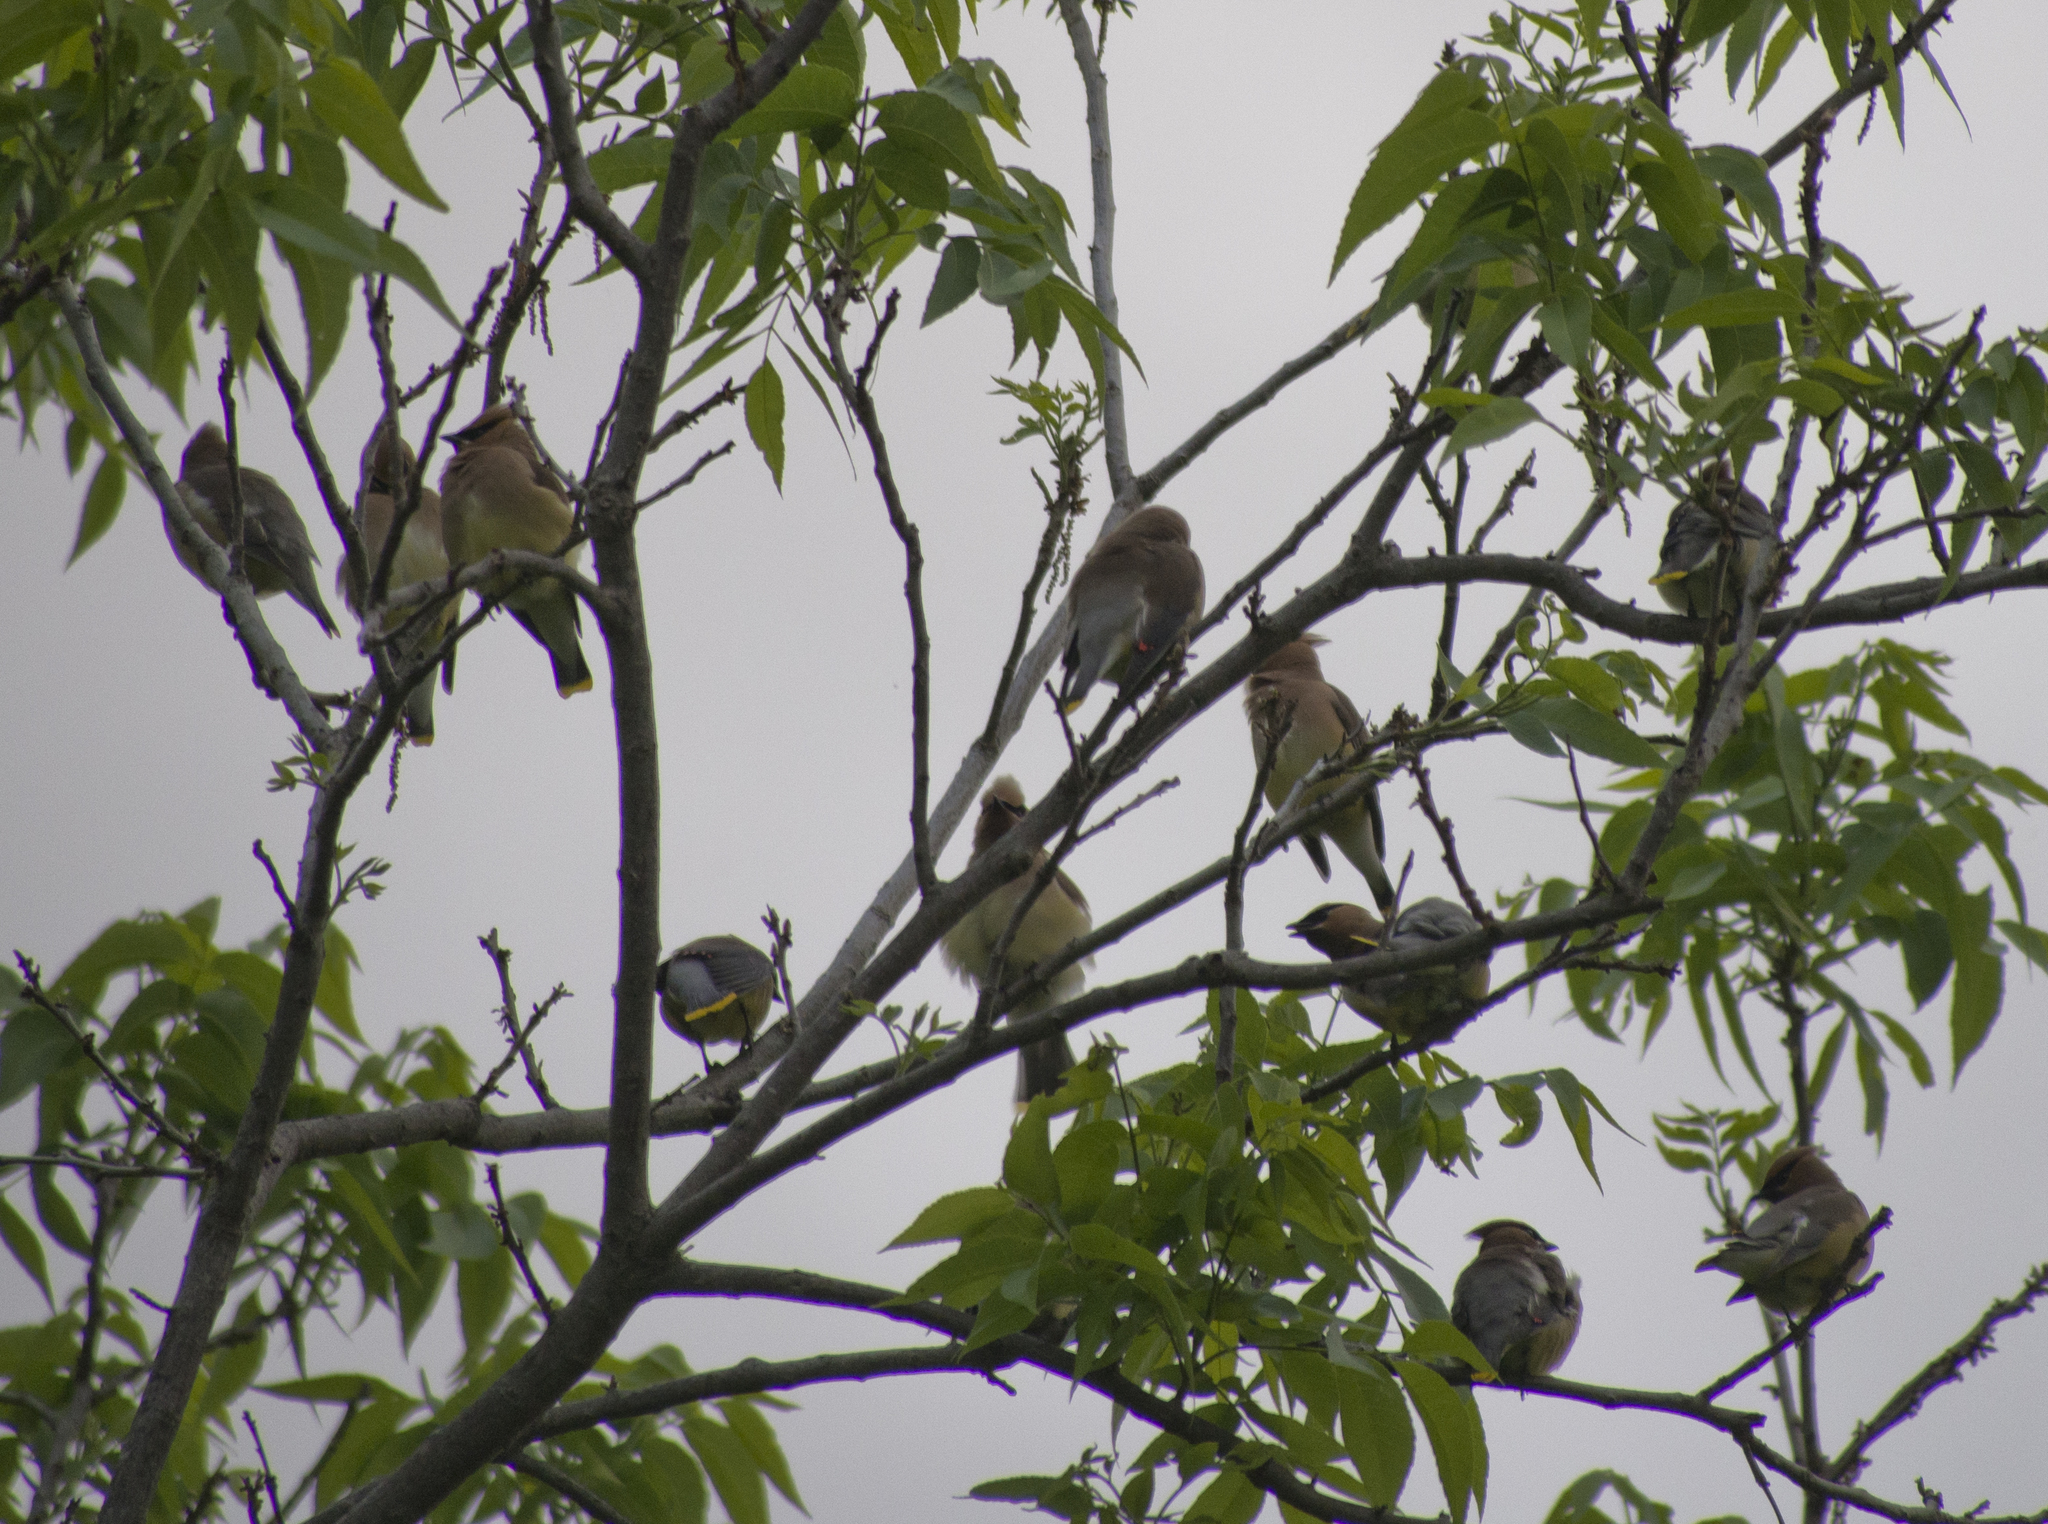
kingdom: Animalia
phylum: Chordata
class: Aves
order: Passeriformes
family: Bombycillidae
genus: Bombycilla
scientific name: Bombycilla cedrorum
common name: Cedar waxwing
